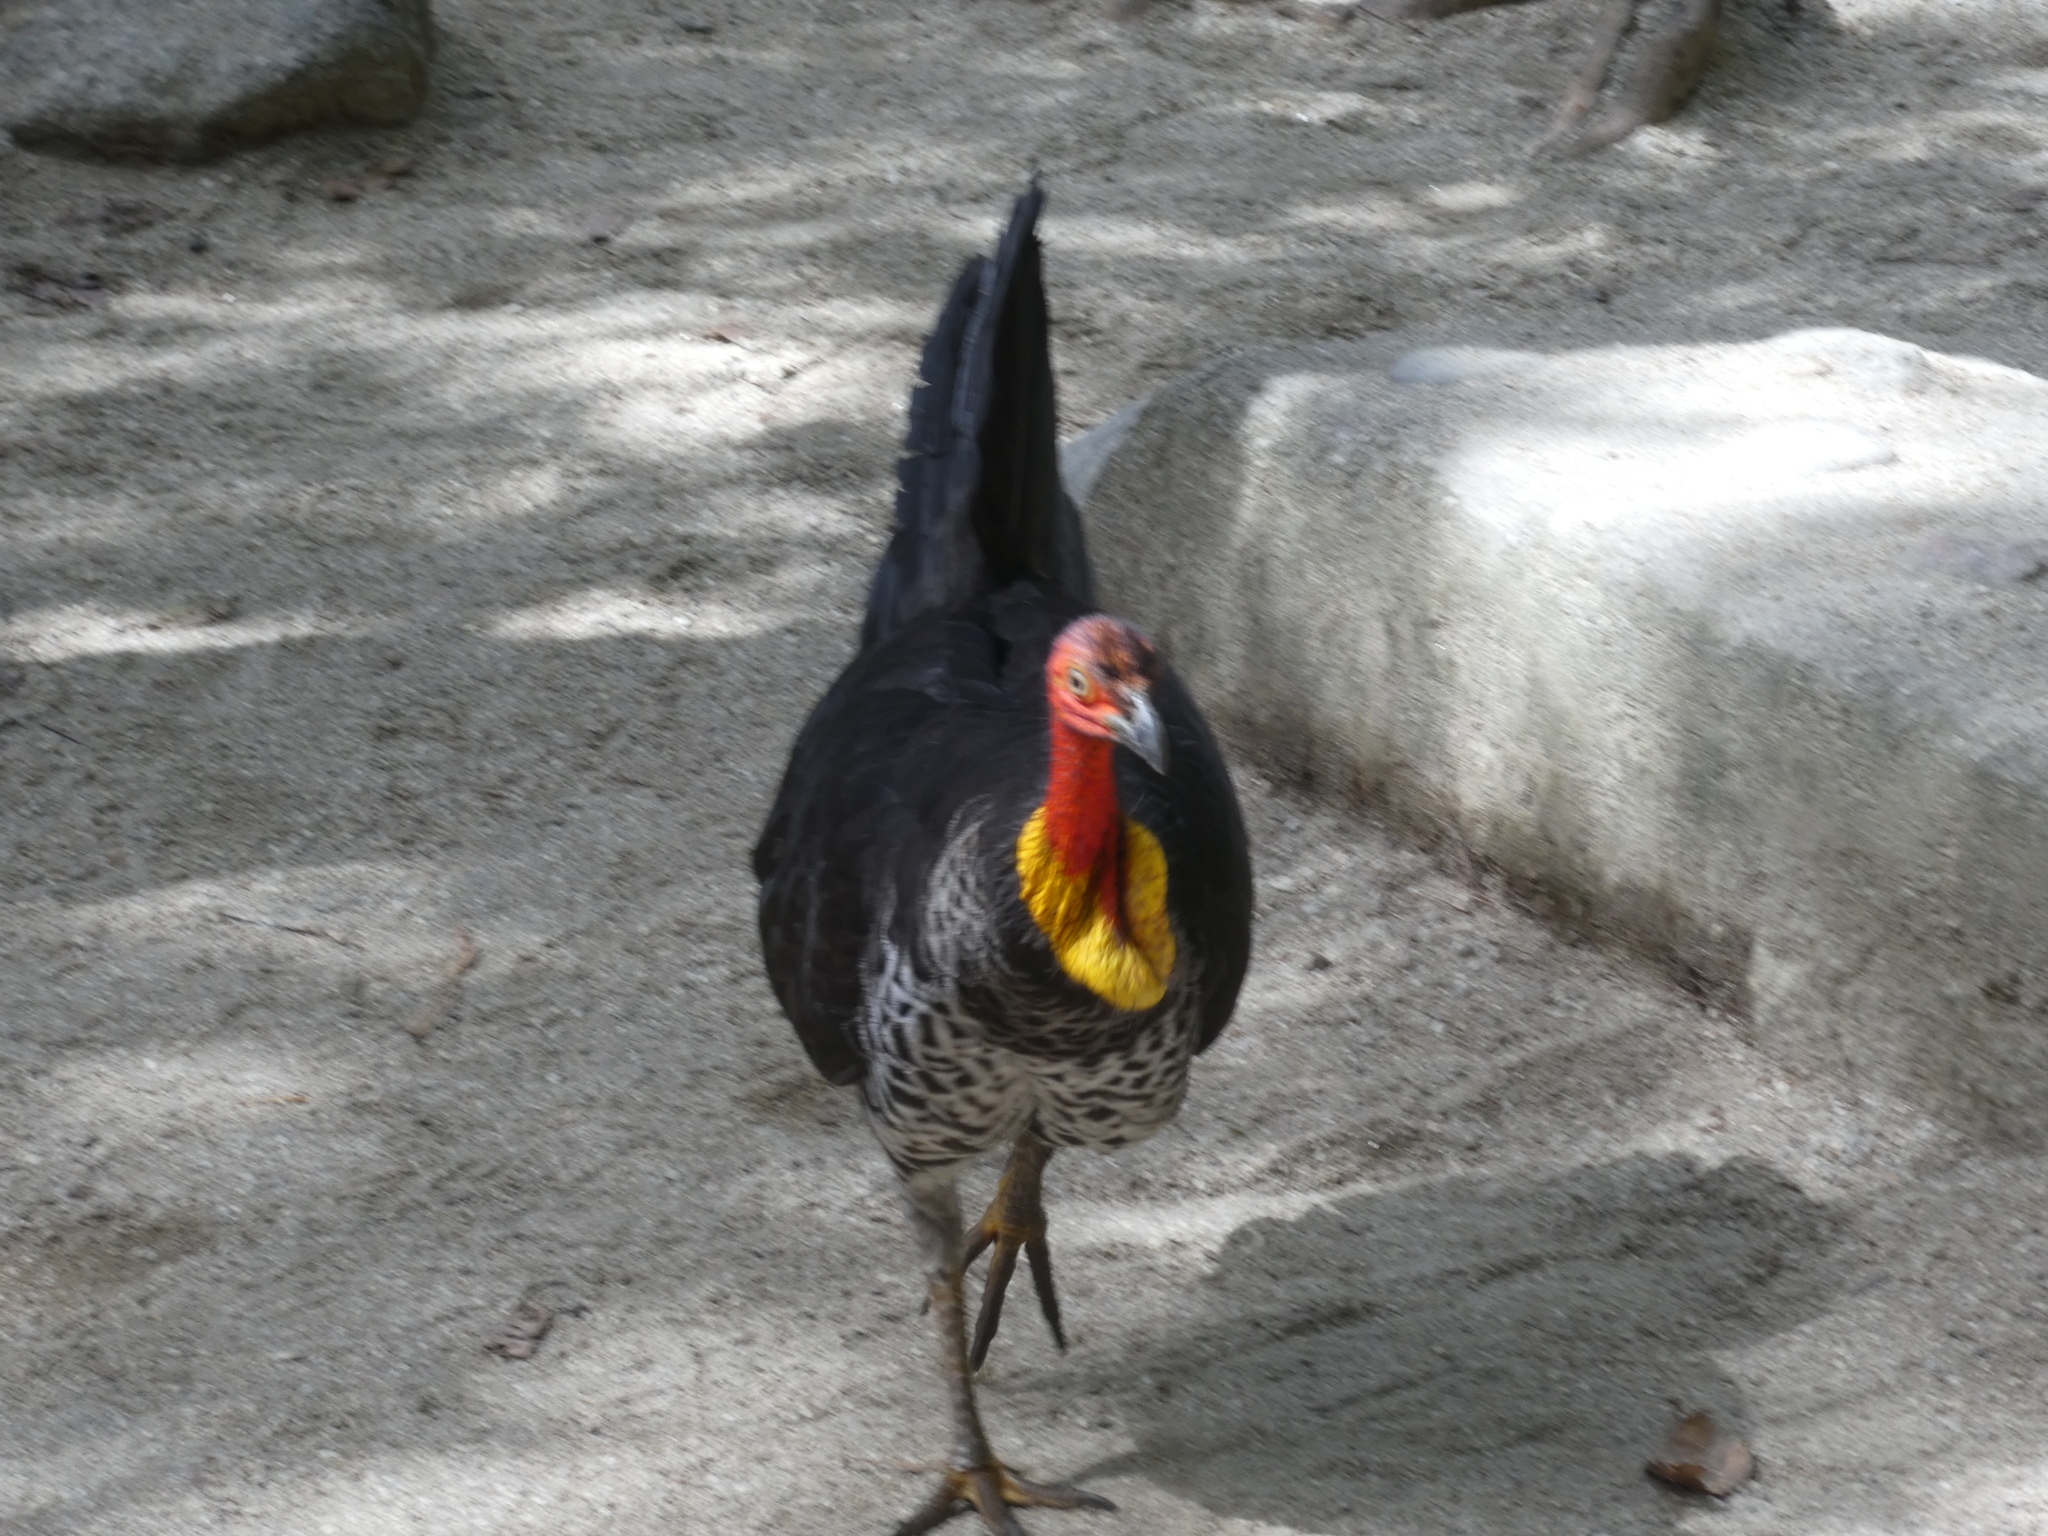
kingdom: Animalia
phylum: Chordata
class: Aves
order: Galliformes
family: Megapodiidae
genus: Alectura
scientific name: Alectura lathami
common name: Australian brushturkey
